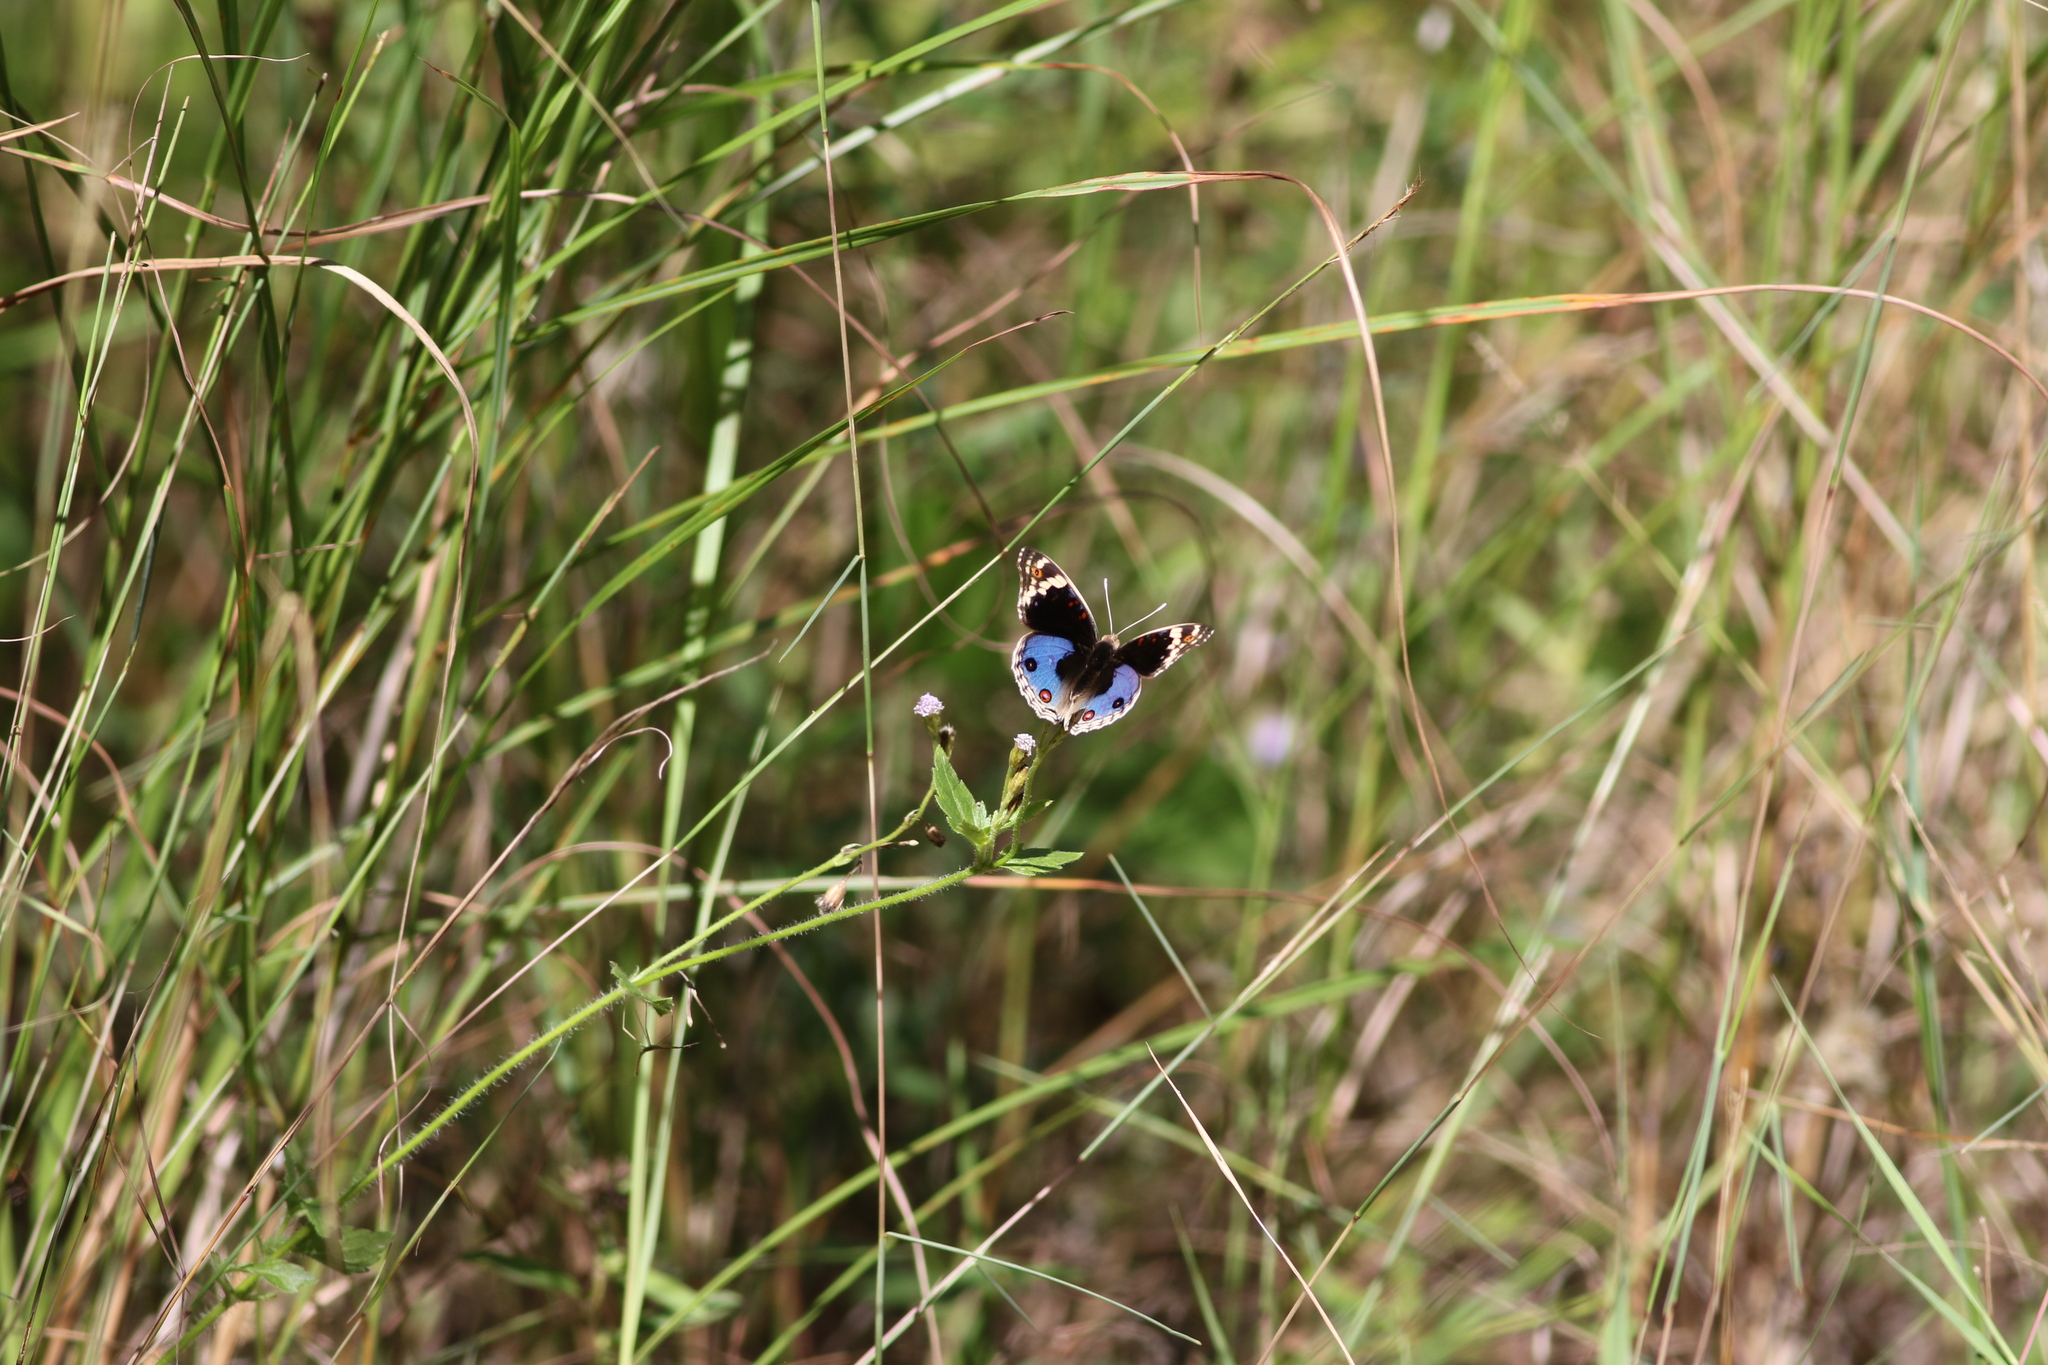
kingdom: Animalia
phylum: Arthropoda
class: Insecta
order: Lepidoptera
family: Nymphalidae
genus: Junonia
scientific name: Junonia orithya
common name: Blue pansy
